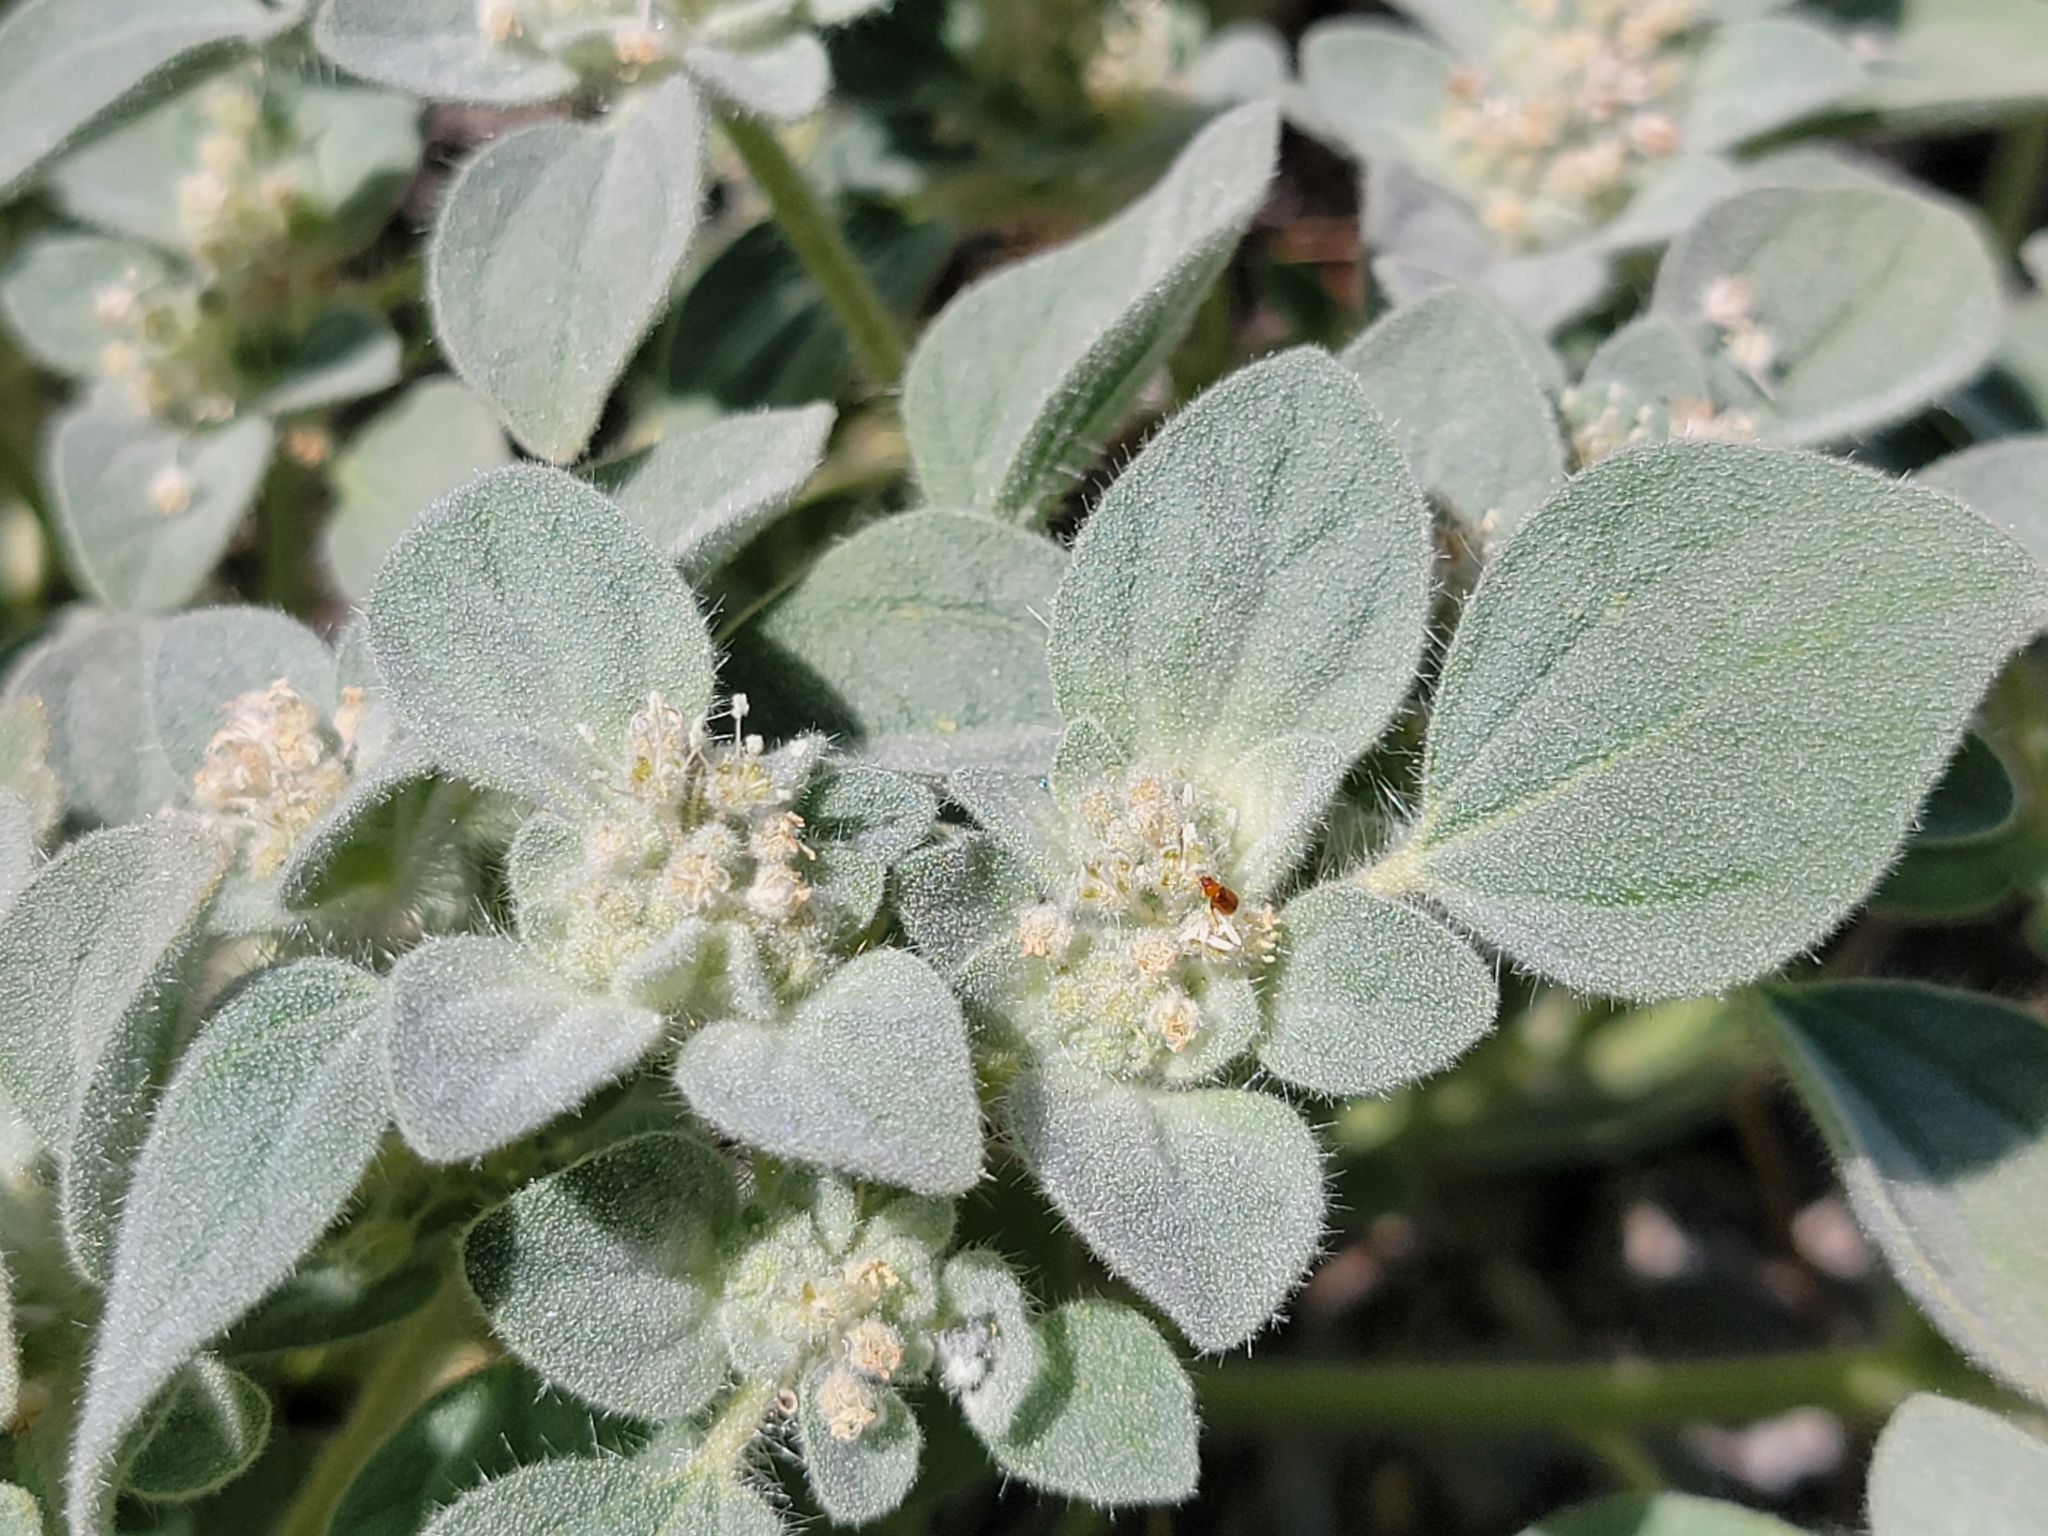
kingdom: Plantae
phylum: Tracheophyta
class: Magnoliopsida
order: Malpighiales
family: Euphorbiaceae
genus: Croton
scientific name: Croton setiger
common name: Dove weed
